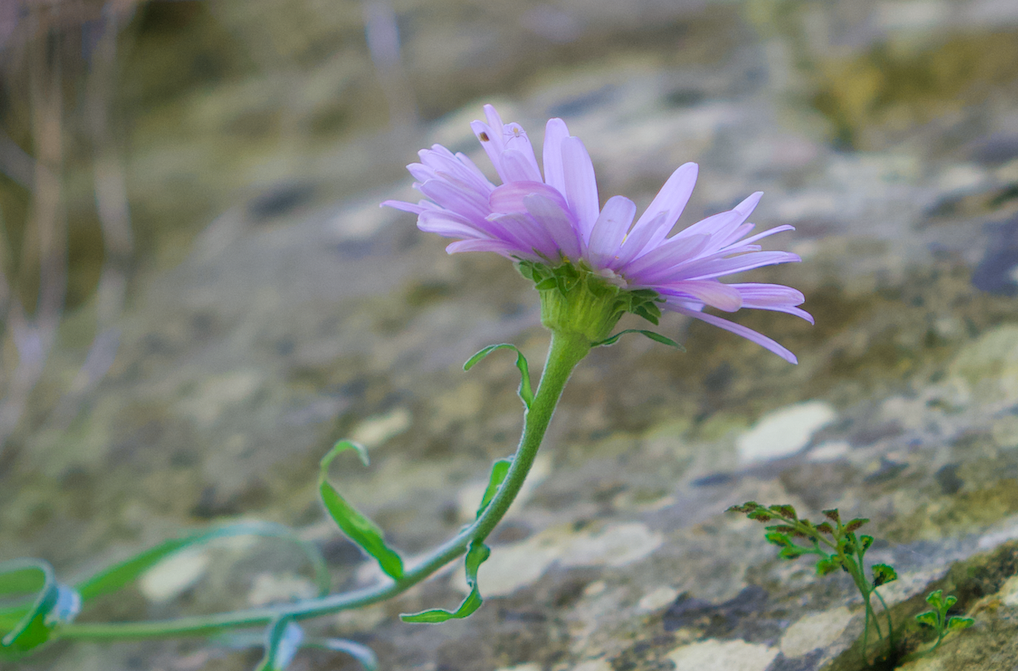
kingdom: Plantae
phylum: Tracheophyta
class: Magnoliopsida
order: Asterales
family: Asteraceae
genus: Aster
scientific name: Aster alpinus
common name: Alpine aster
